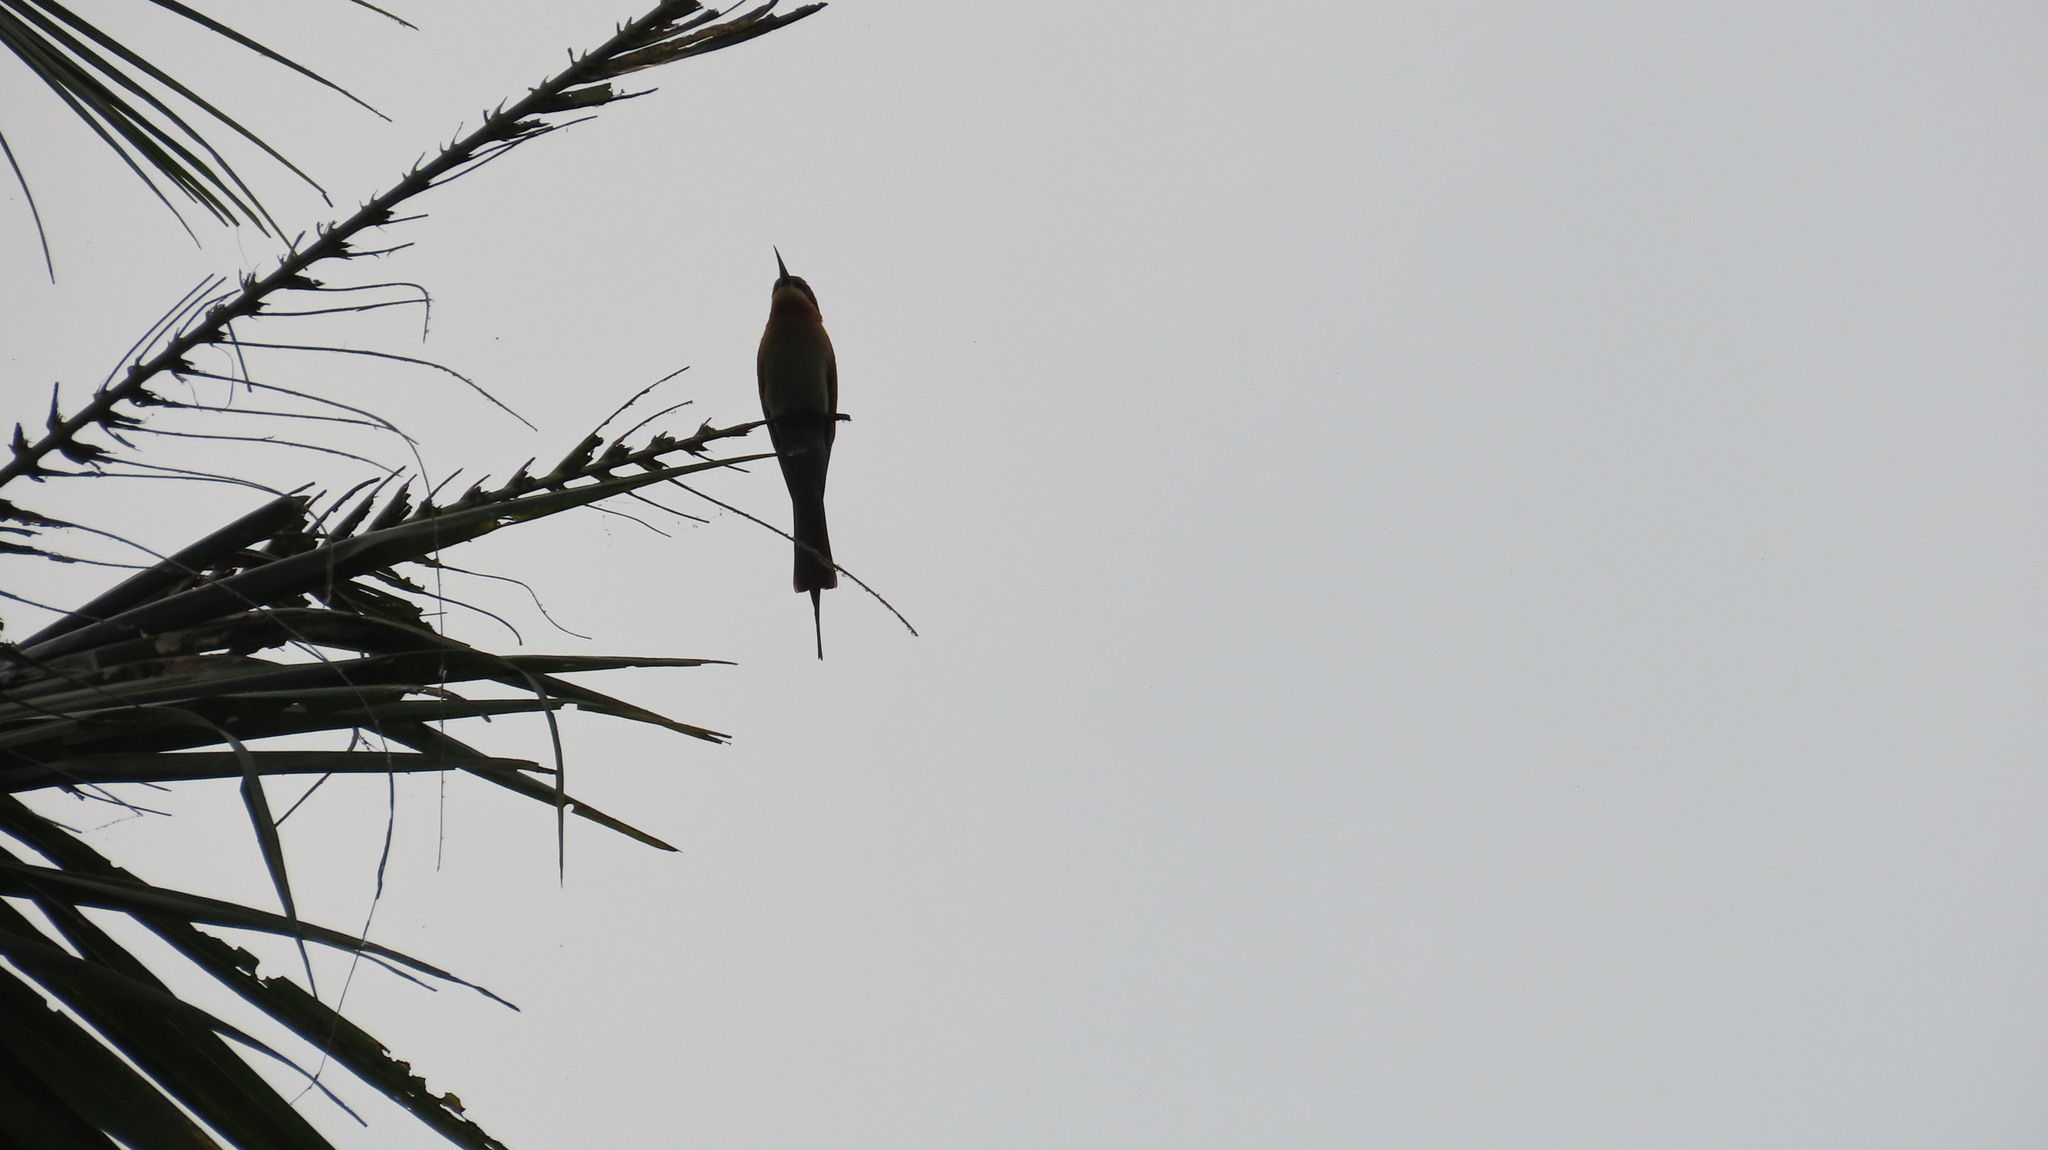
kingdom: Animalia
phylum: Chordata
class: Aves
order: Coraciiformes
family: Meropidae
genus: Merops
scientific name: Merops philippinus
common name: Blue-tailed bee-eater
